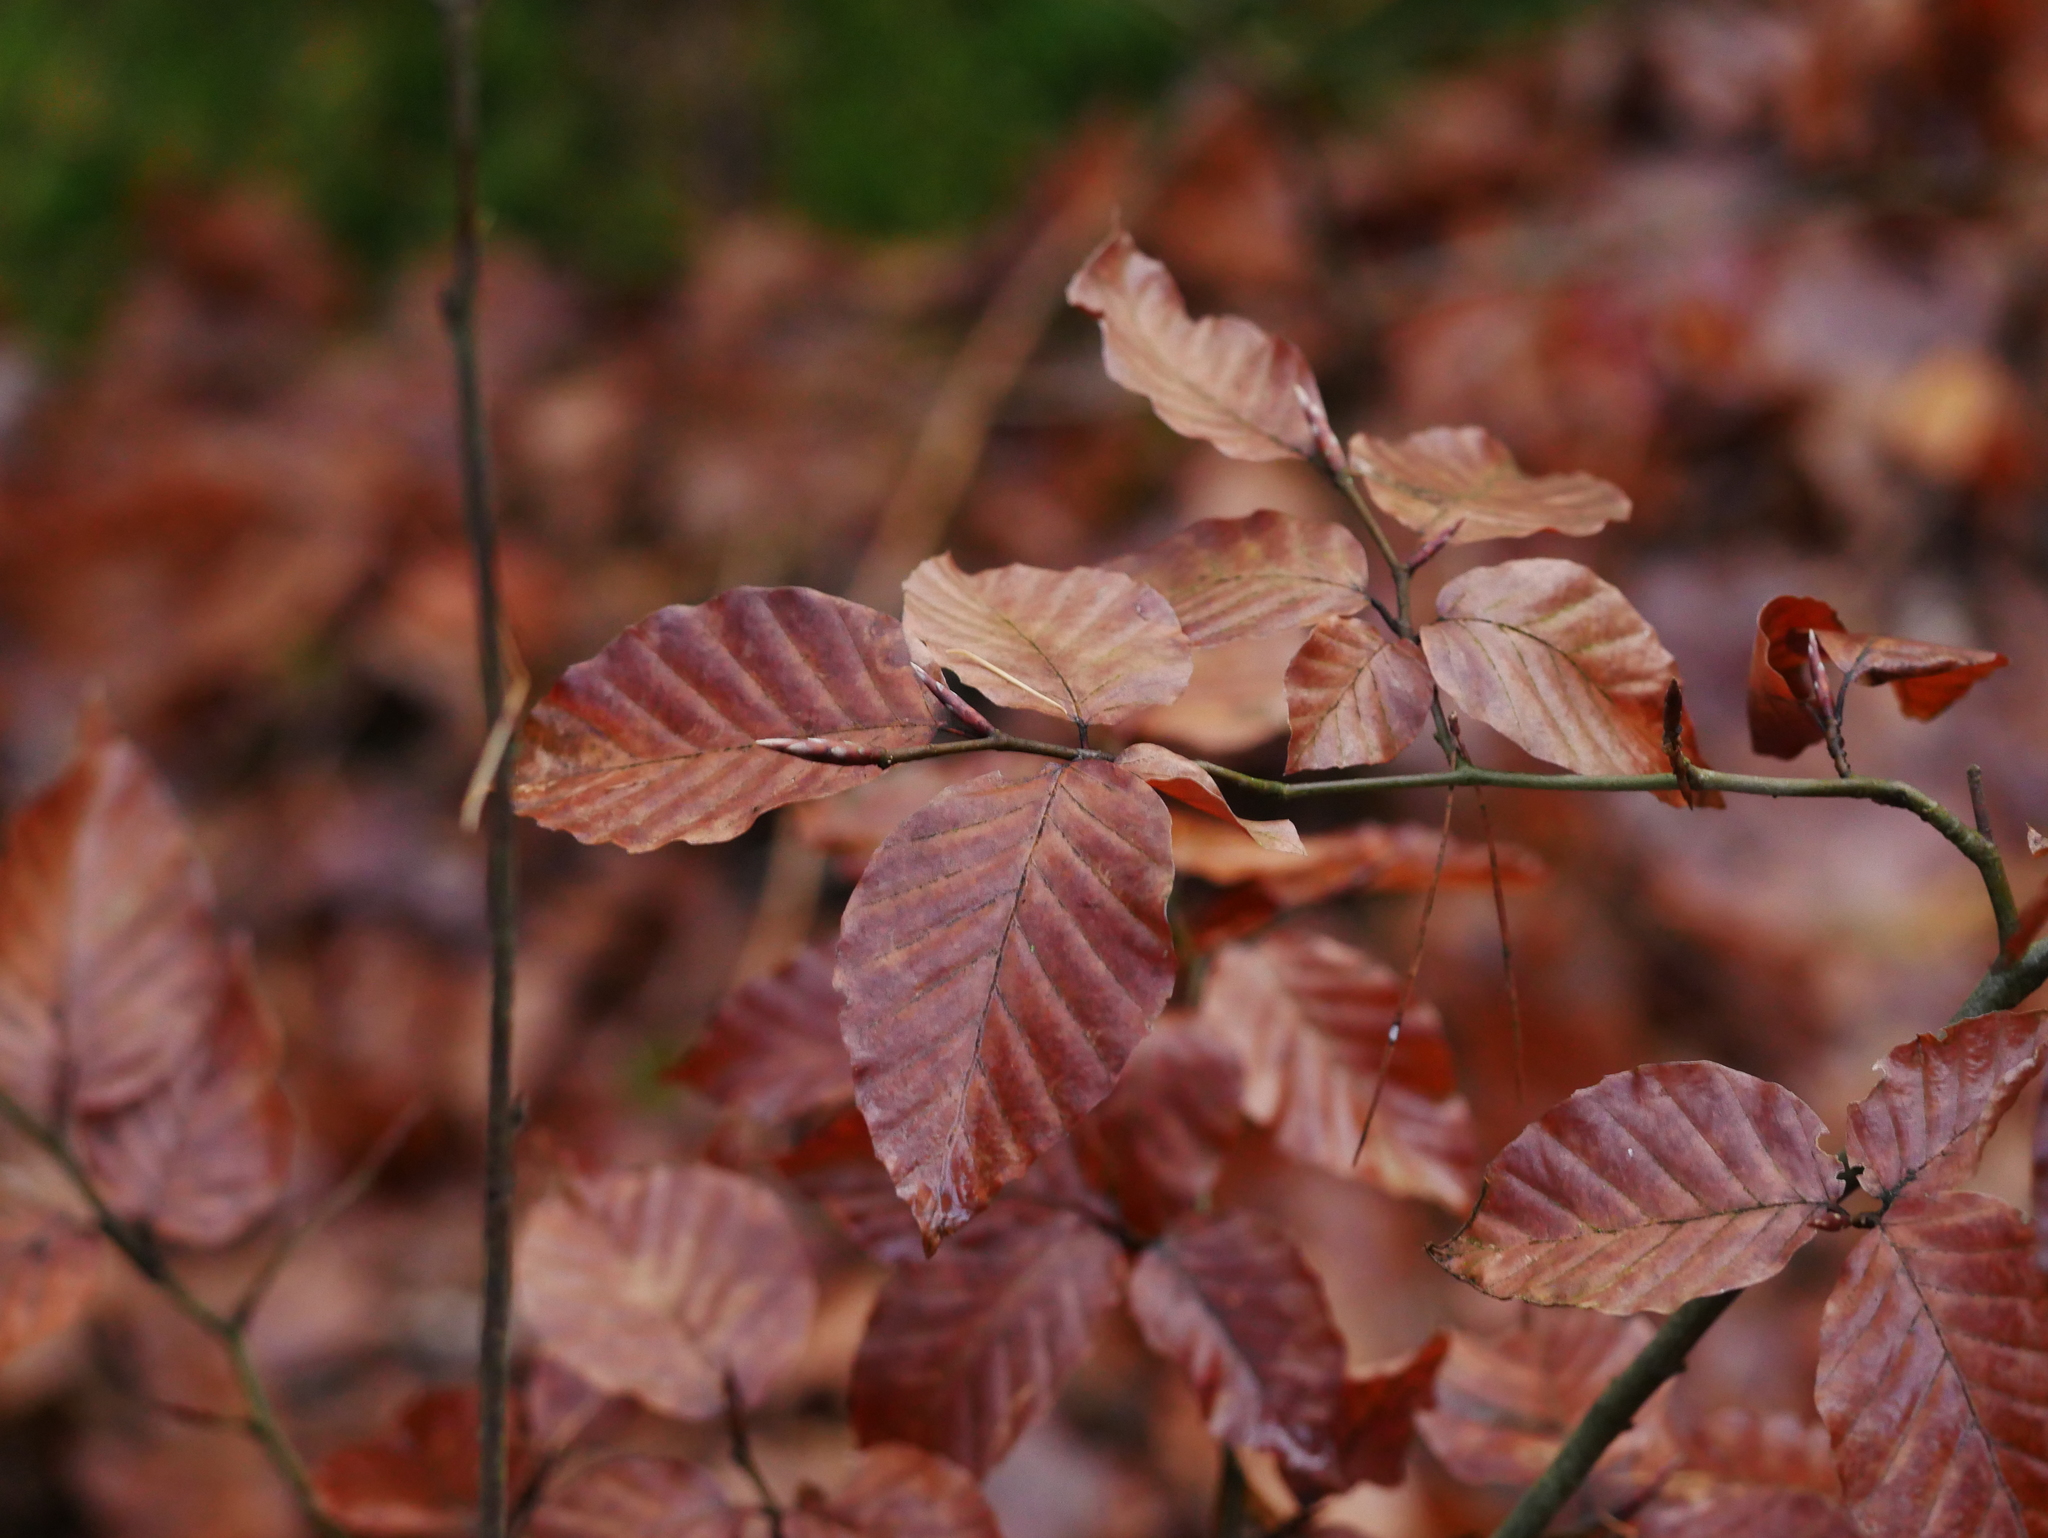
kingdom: Plantae
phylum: Tracheophyta
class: Magnoliopsida
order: Fagales
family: Fagaceae
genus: Fagus
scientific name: Fagus sylvatica
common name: Beech
